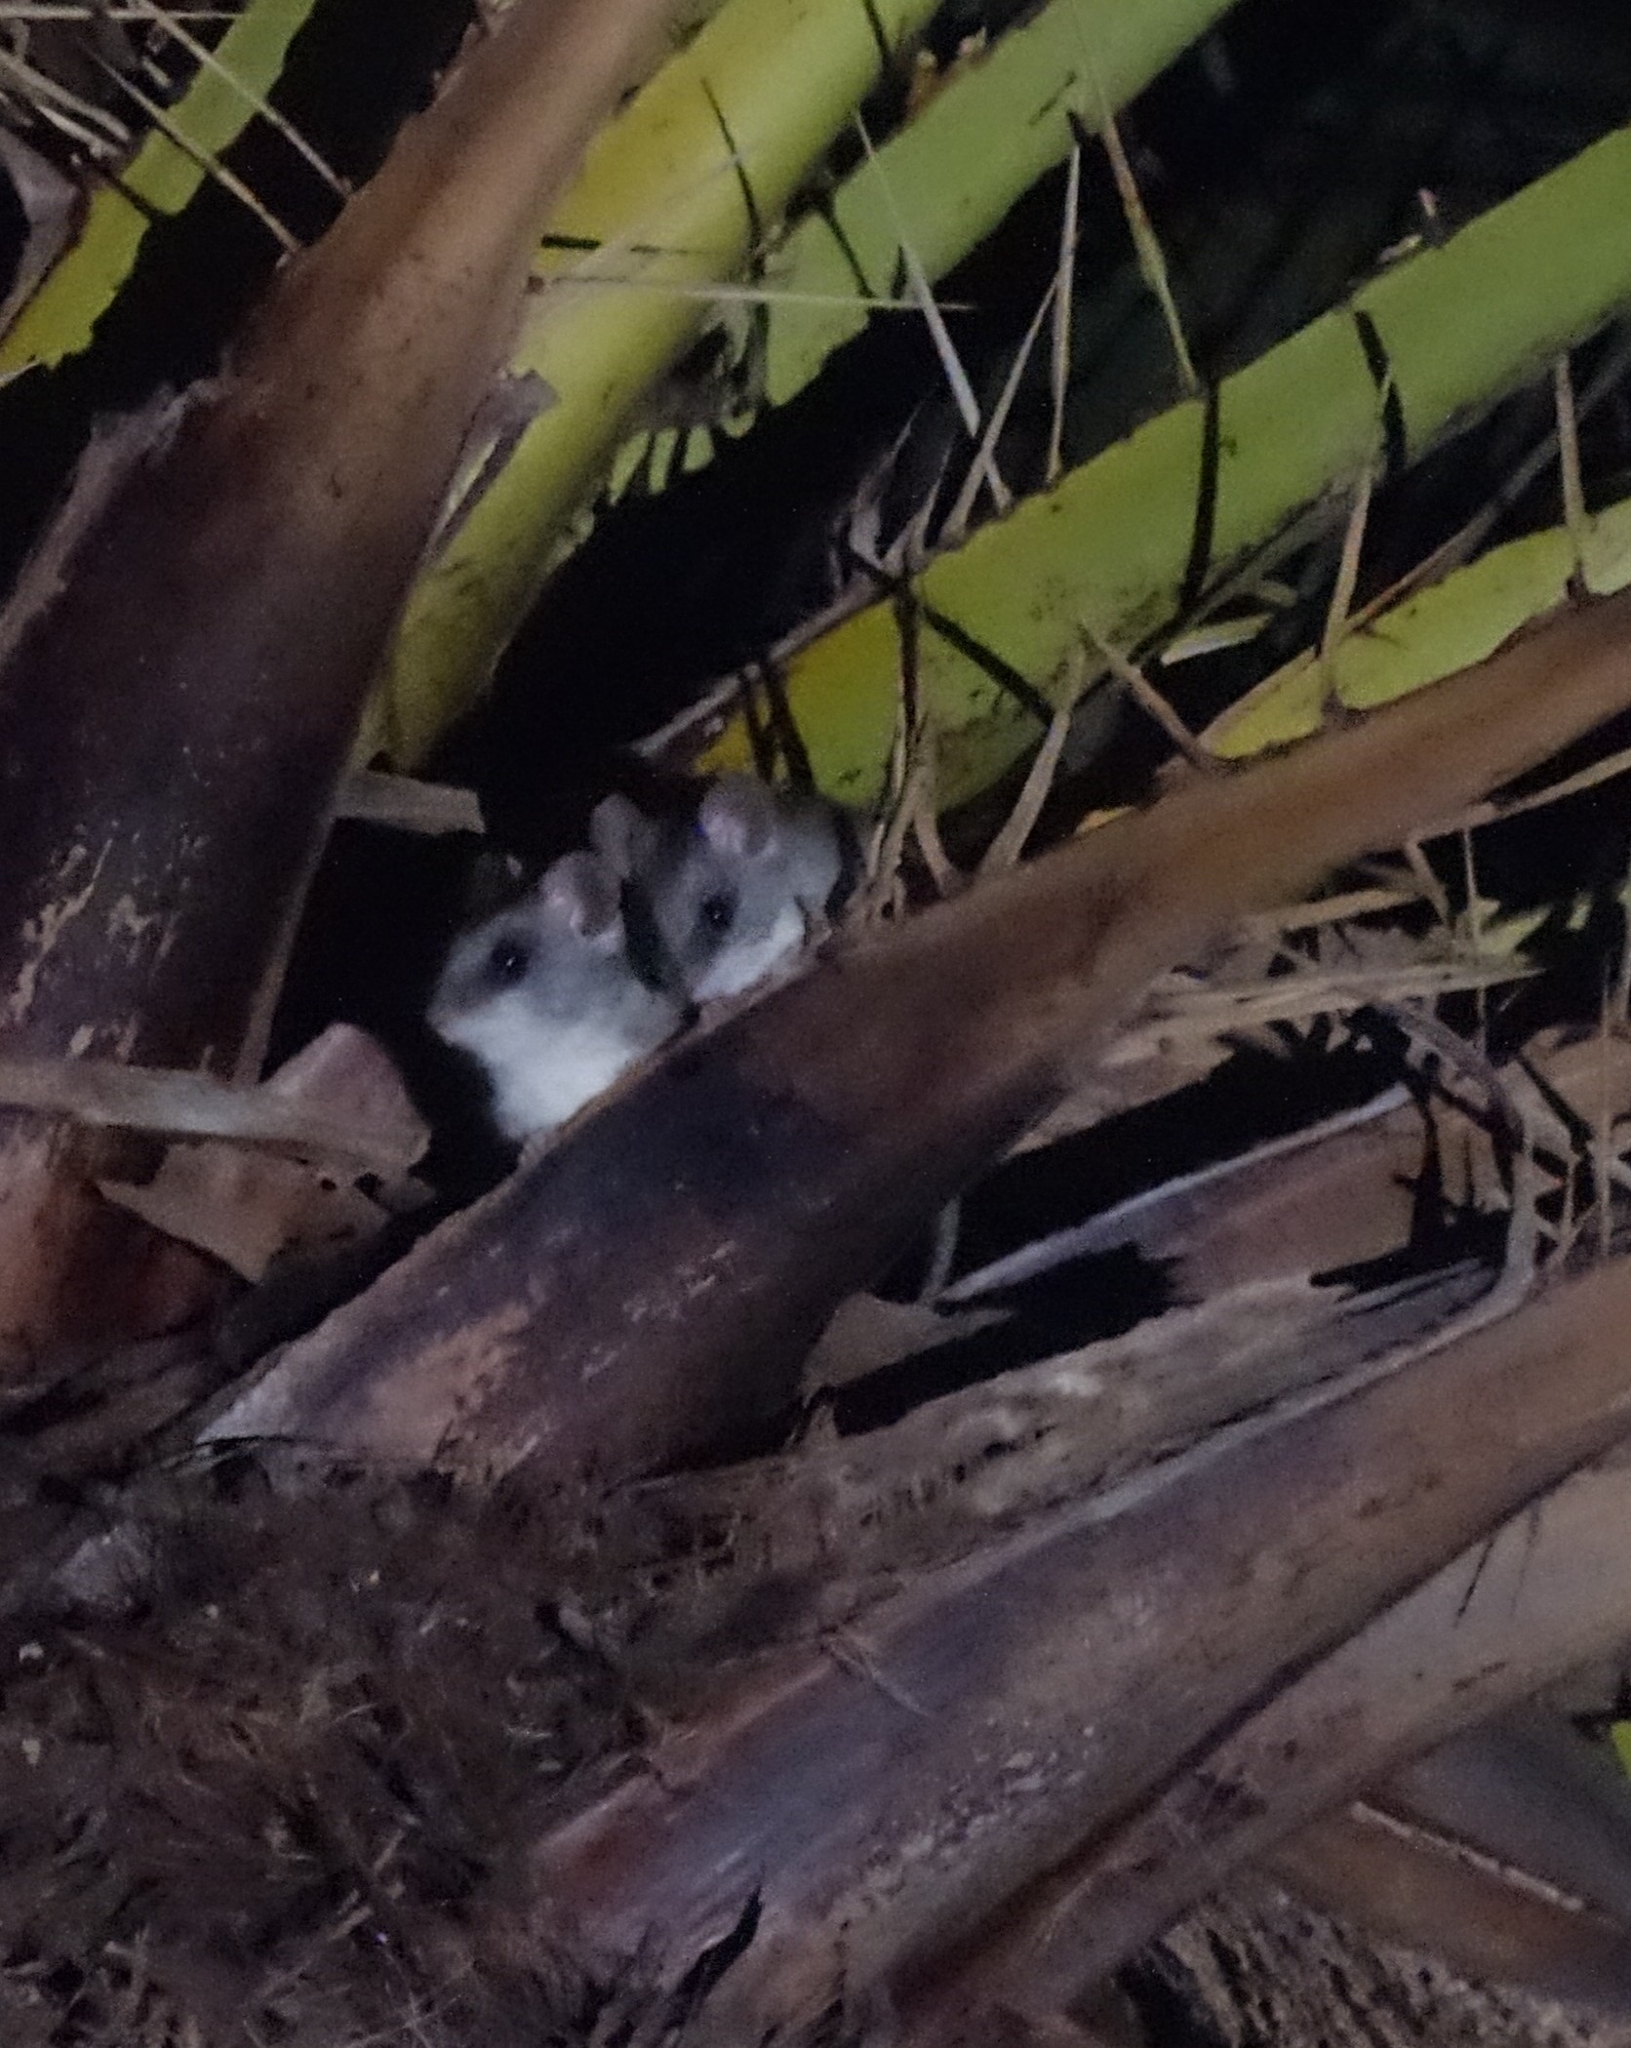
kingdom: Animalia
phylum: Chordata
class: Mammalia
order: Rodentia
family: Muridae
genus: Thallomys
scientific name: Thallomys nigricauda
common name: Black-tailed thallomys
